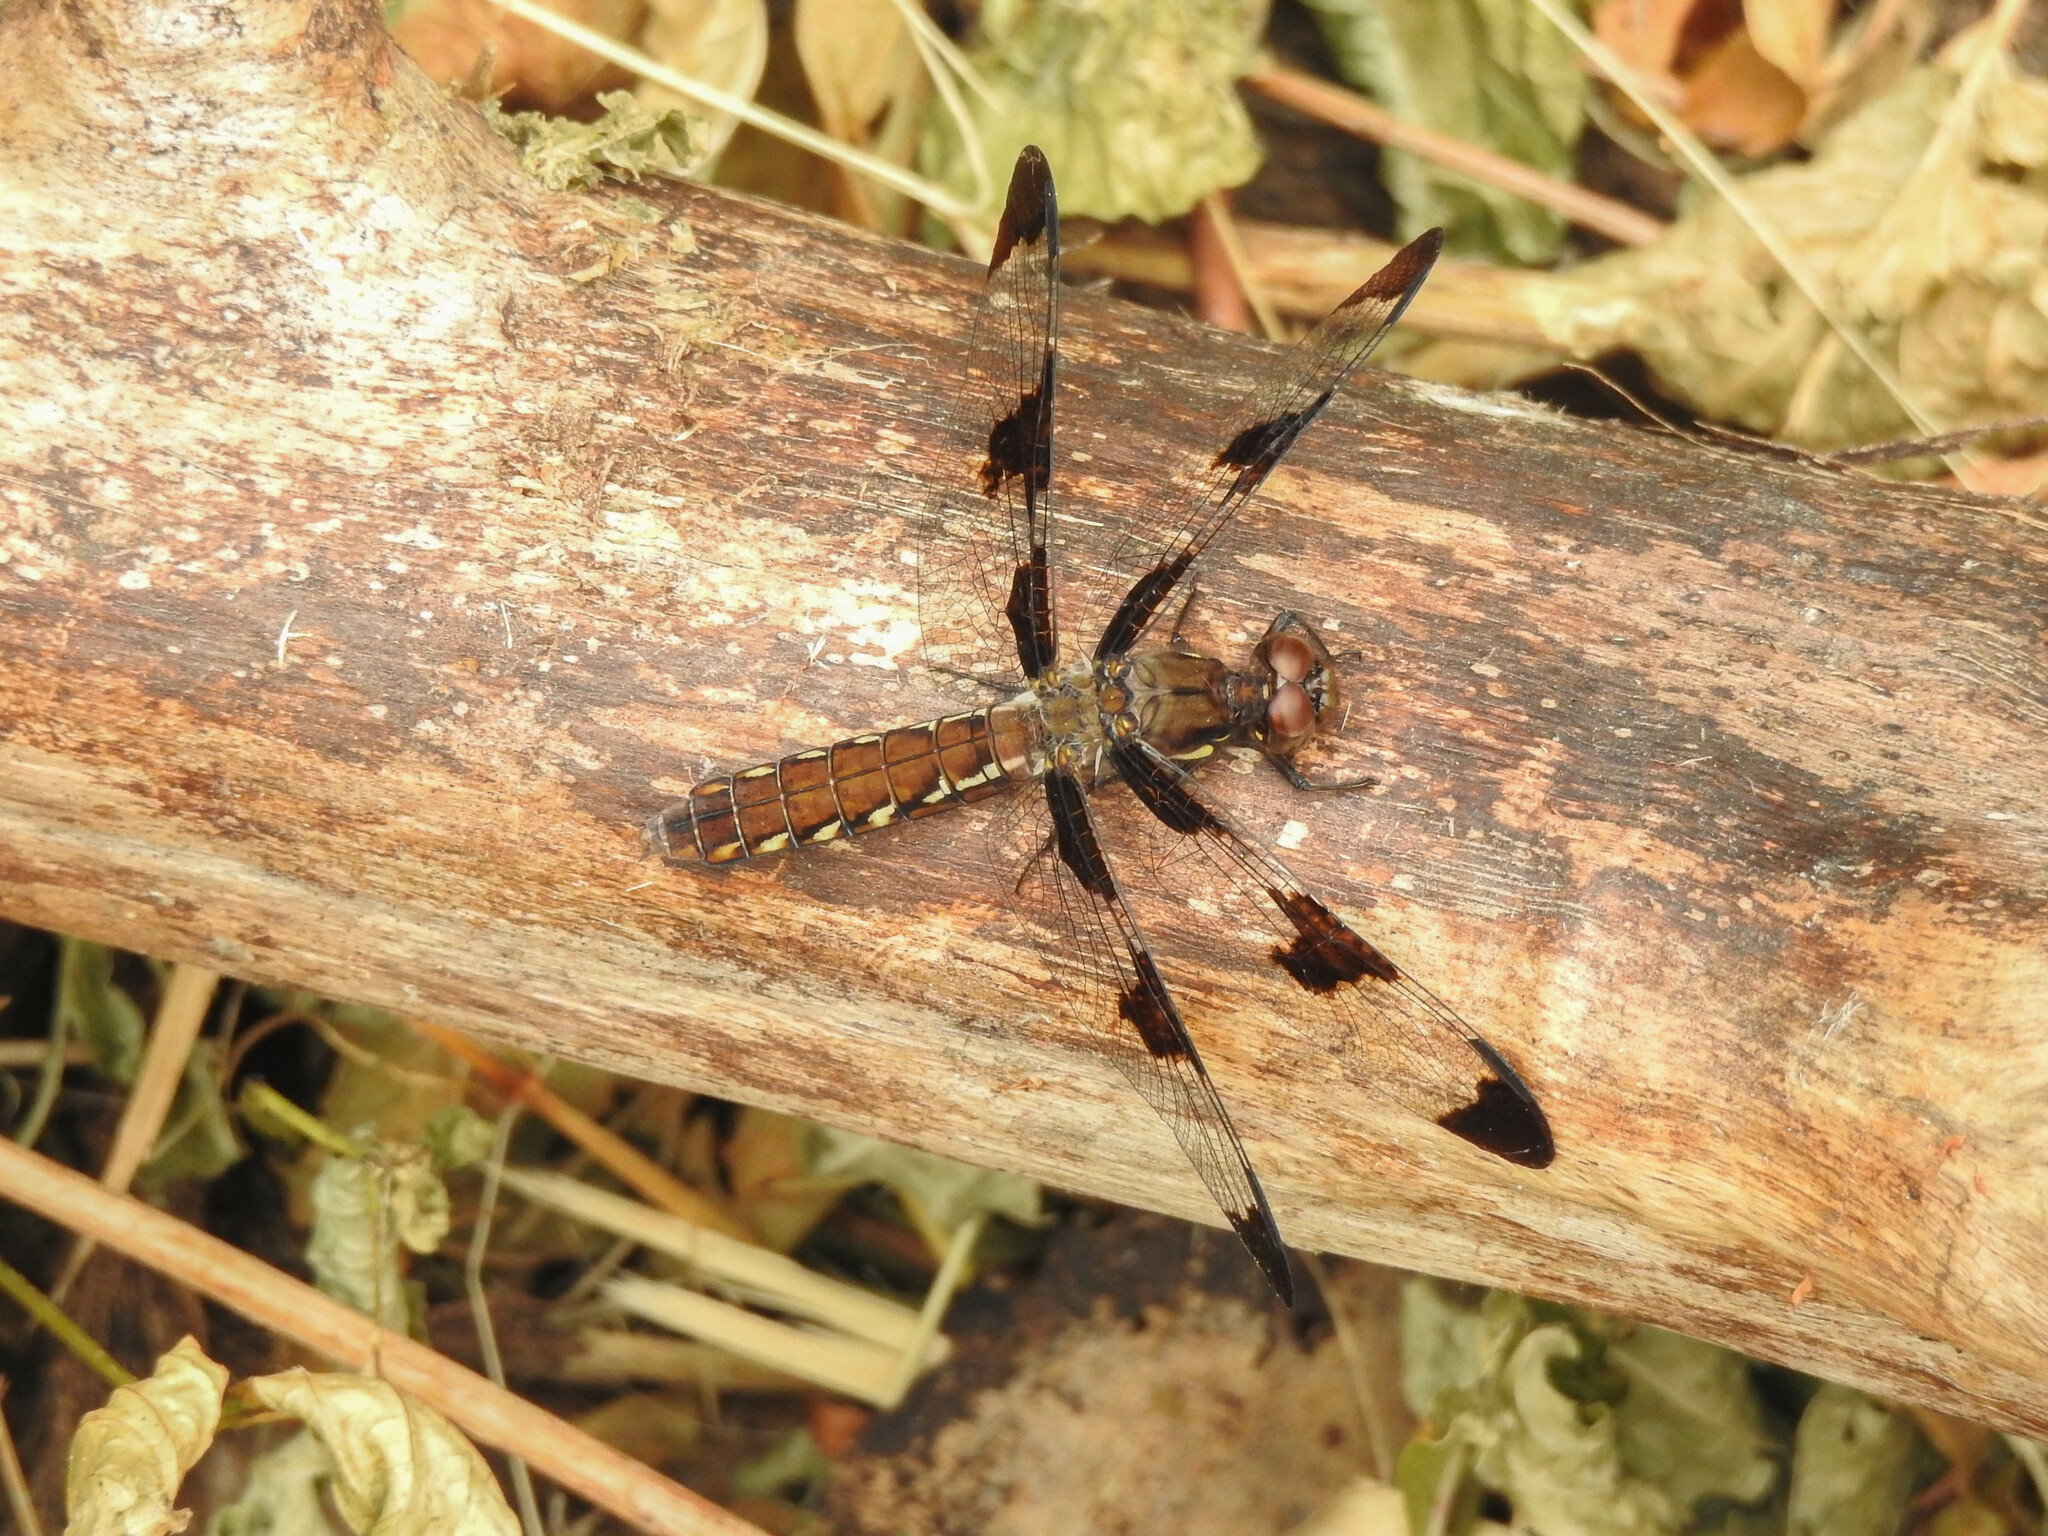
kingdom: Animalia
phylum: Arthropoda
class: Insecta
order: Odonata
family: Libellulidae
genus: Plathemis
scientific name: Plathemis lydia
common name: Common whitetail
